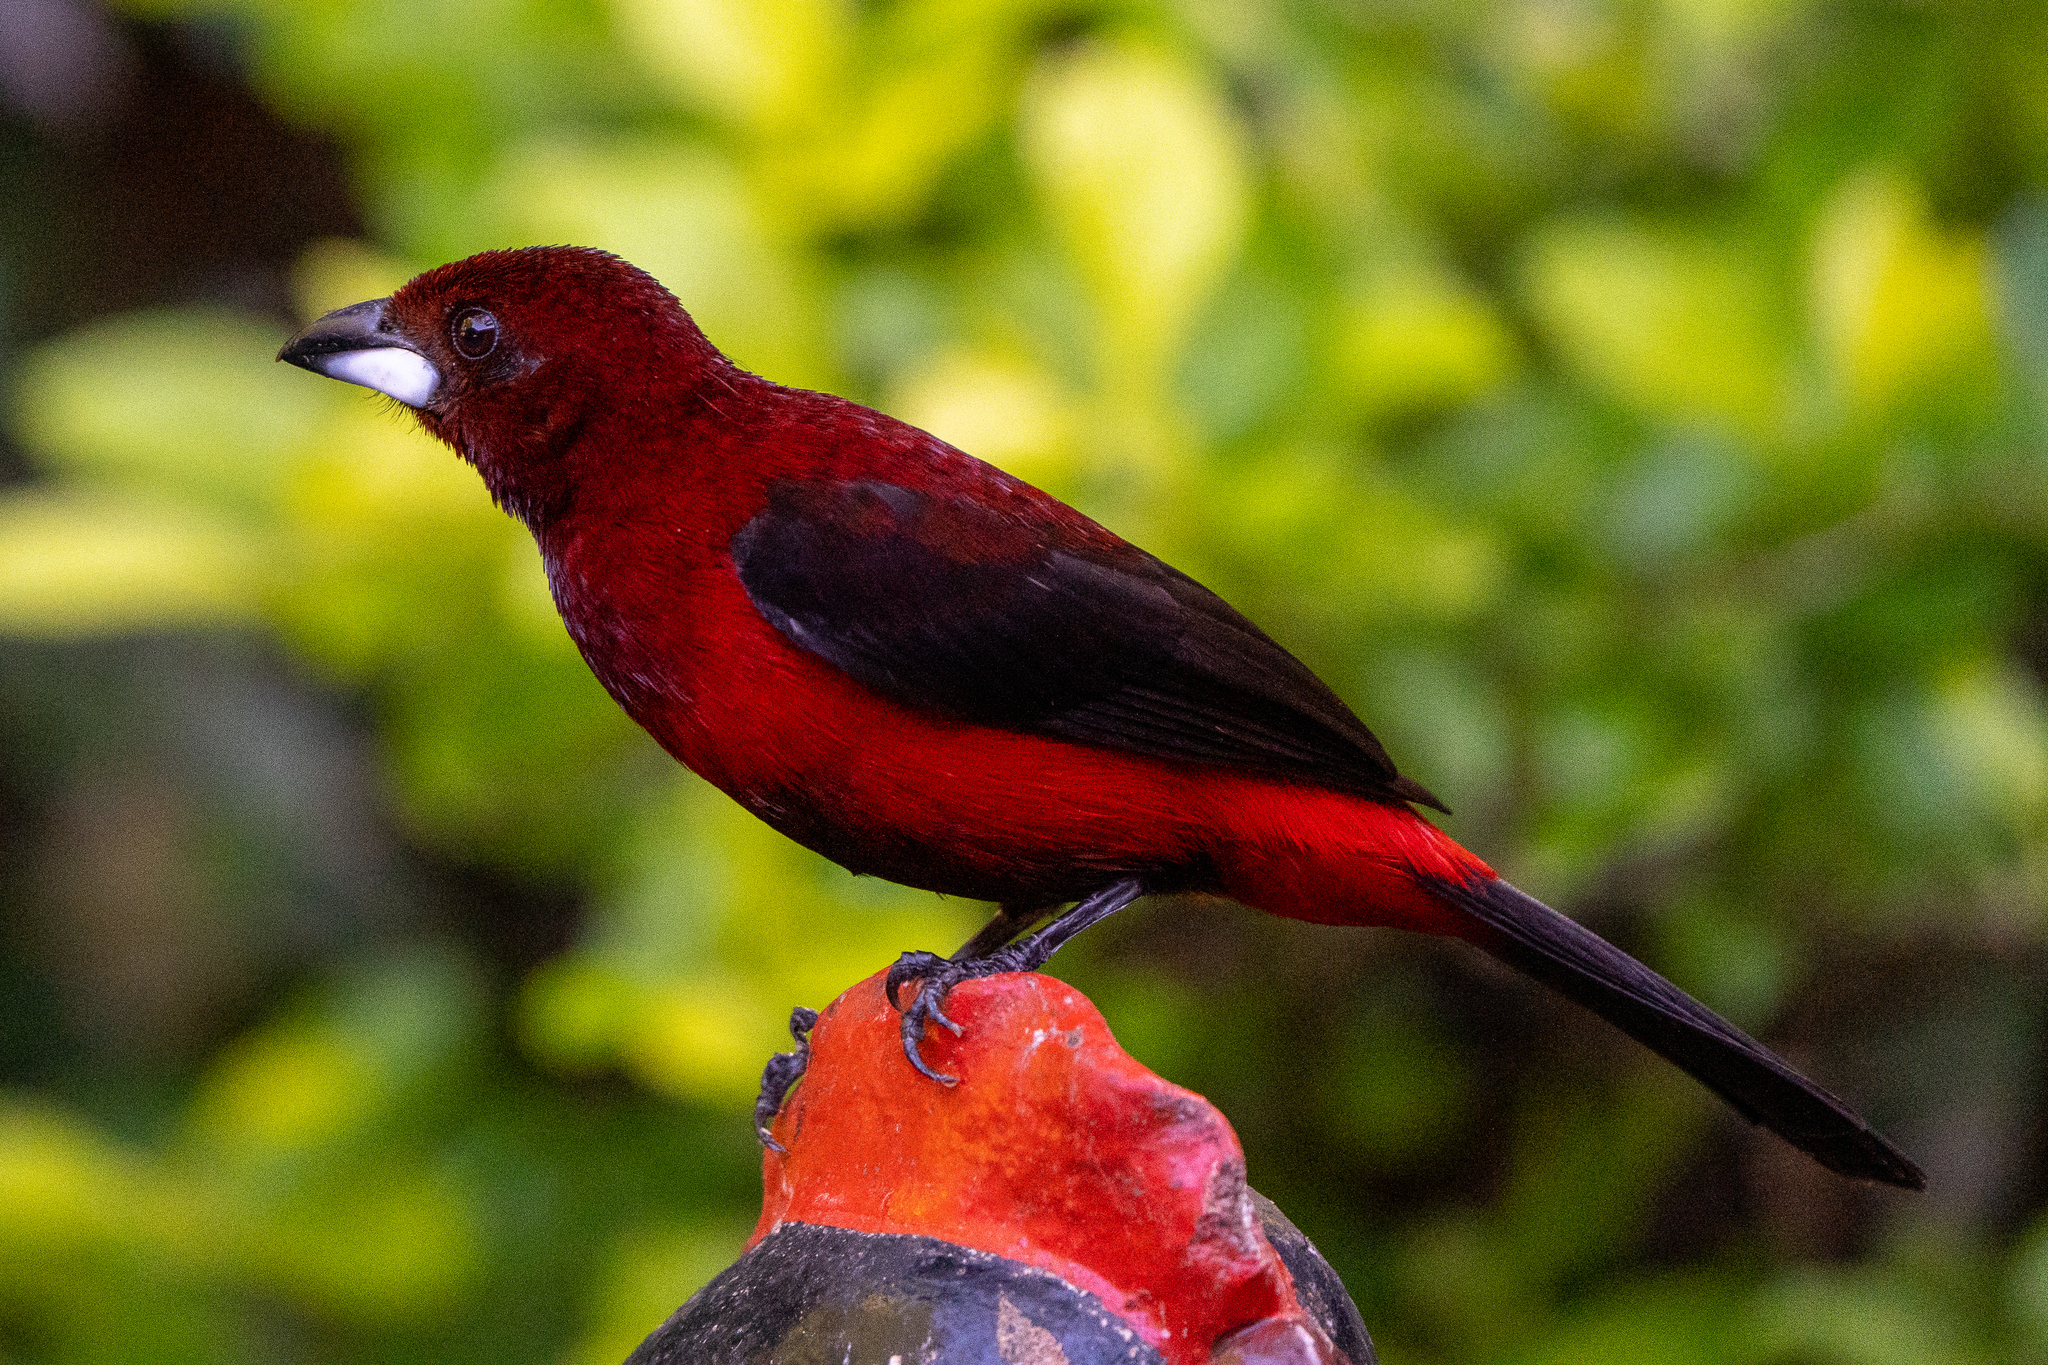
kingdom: Animalia
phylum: Chordata
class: Aves
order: Passeriformes
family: Thraupidae
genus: Ramphocelus
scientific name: Ramphocelus dimidiatus
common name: Crimson-backed tanager
